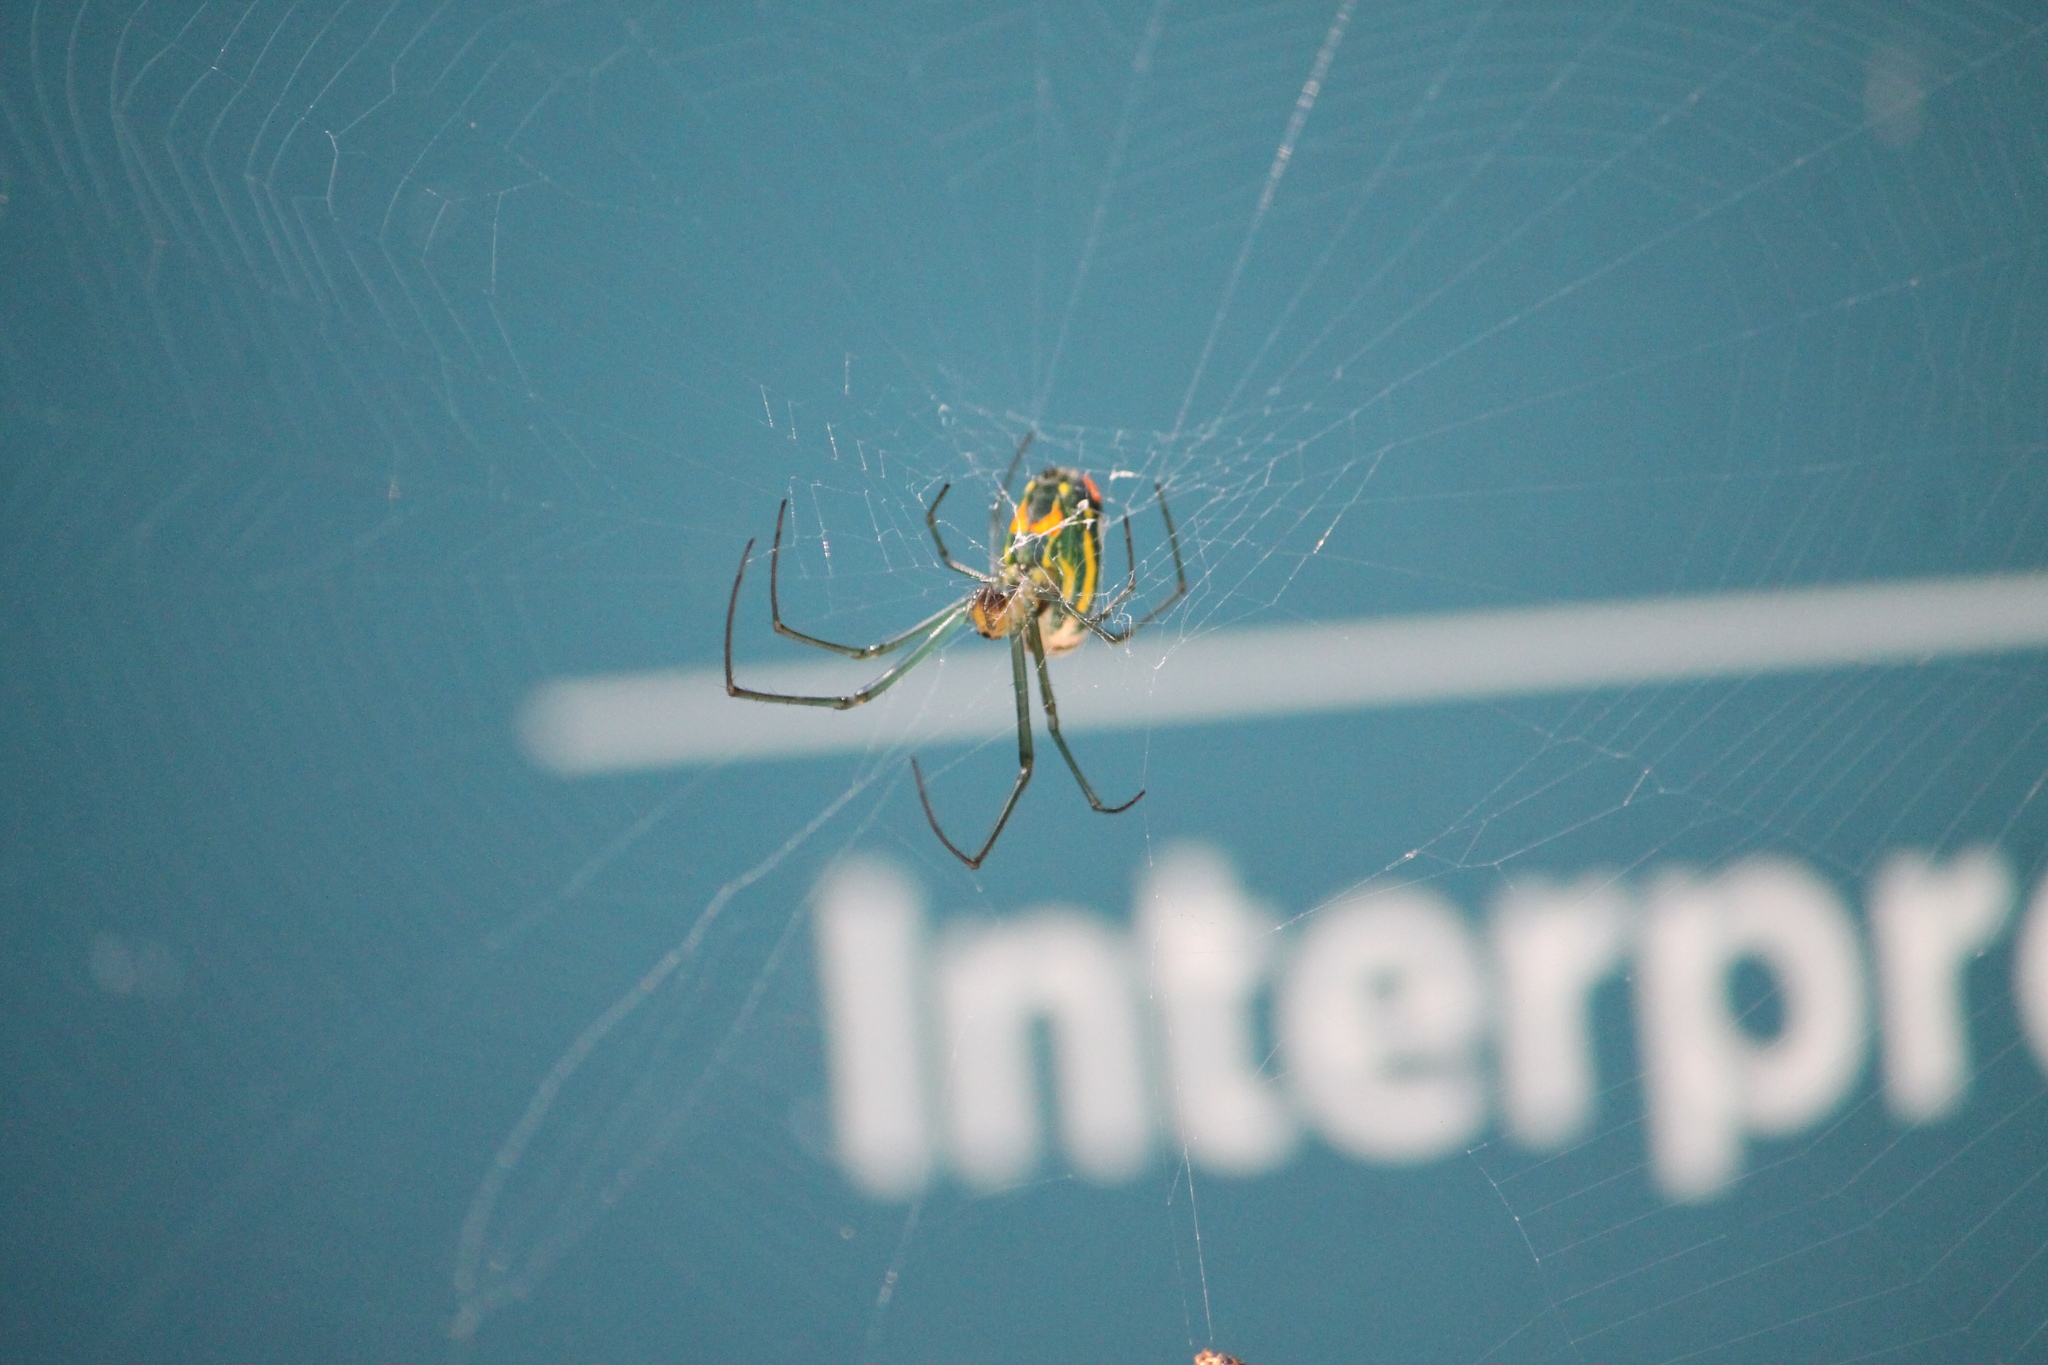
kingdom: Animalia
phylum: Arthropoda
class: Arachnida
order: Araneae
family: Tetragnathidae
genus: Leucauge
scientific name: Leucauge argyrobapta
